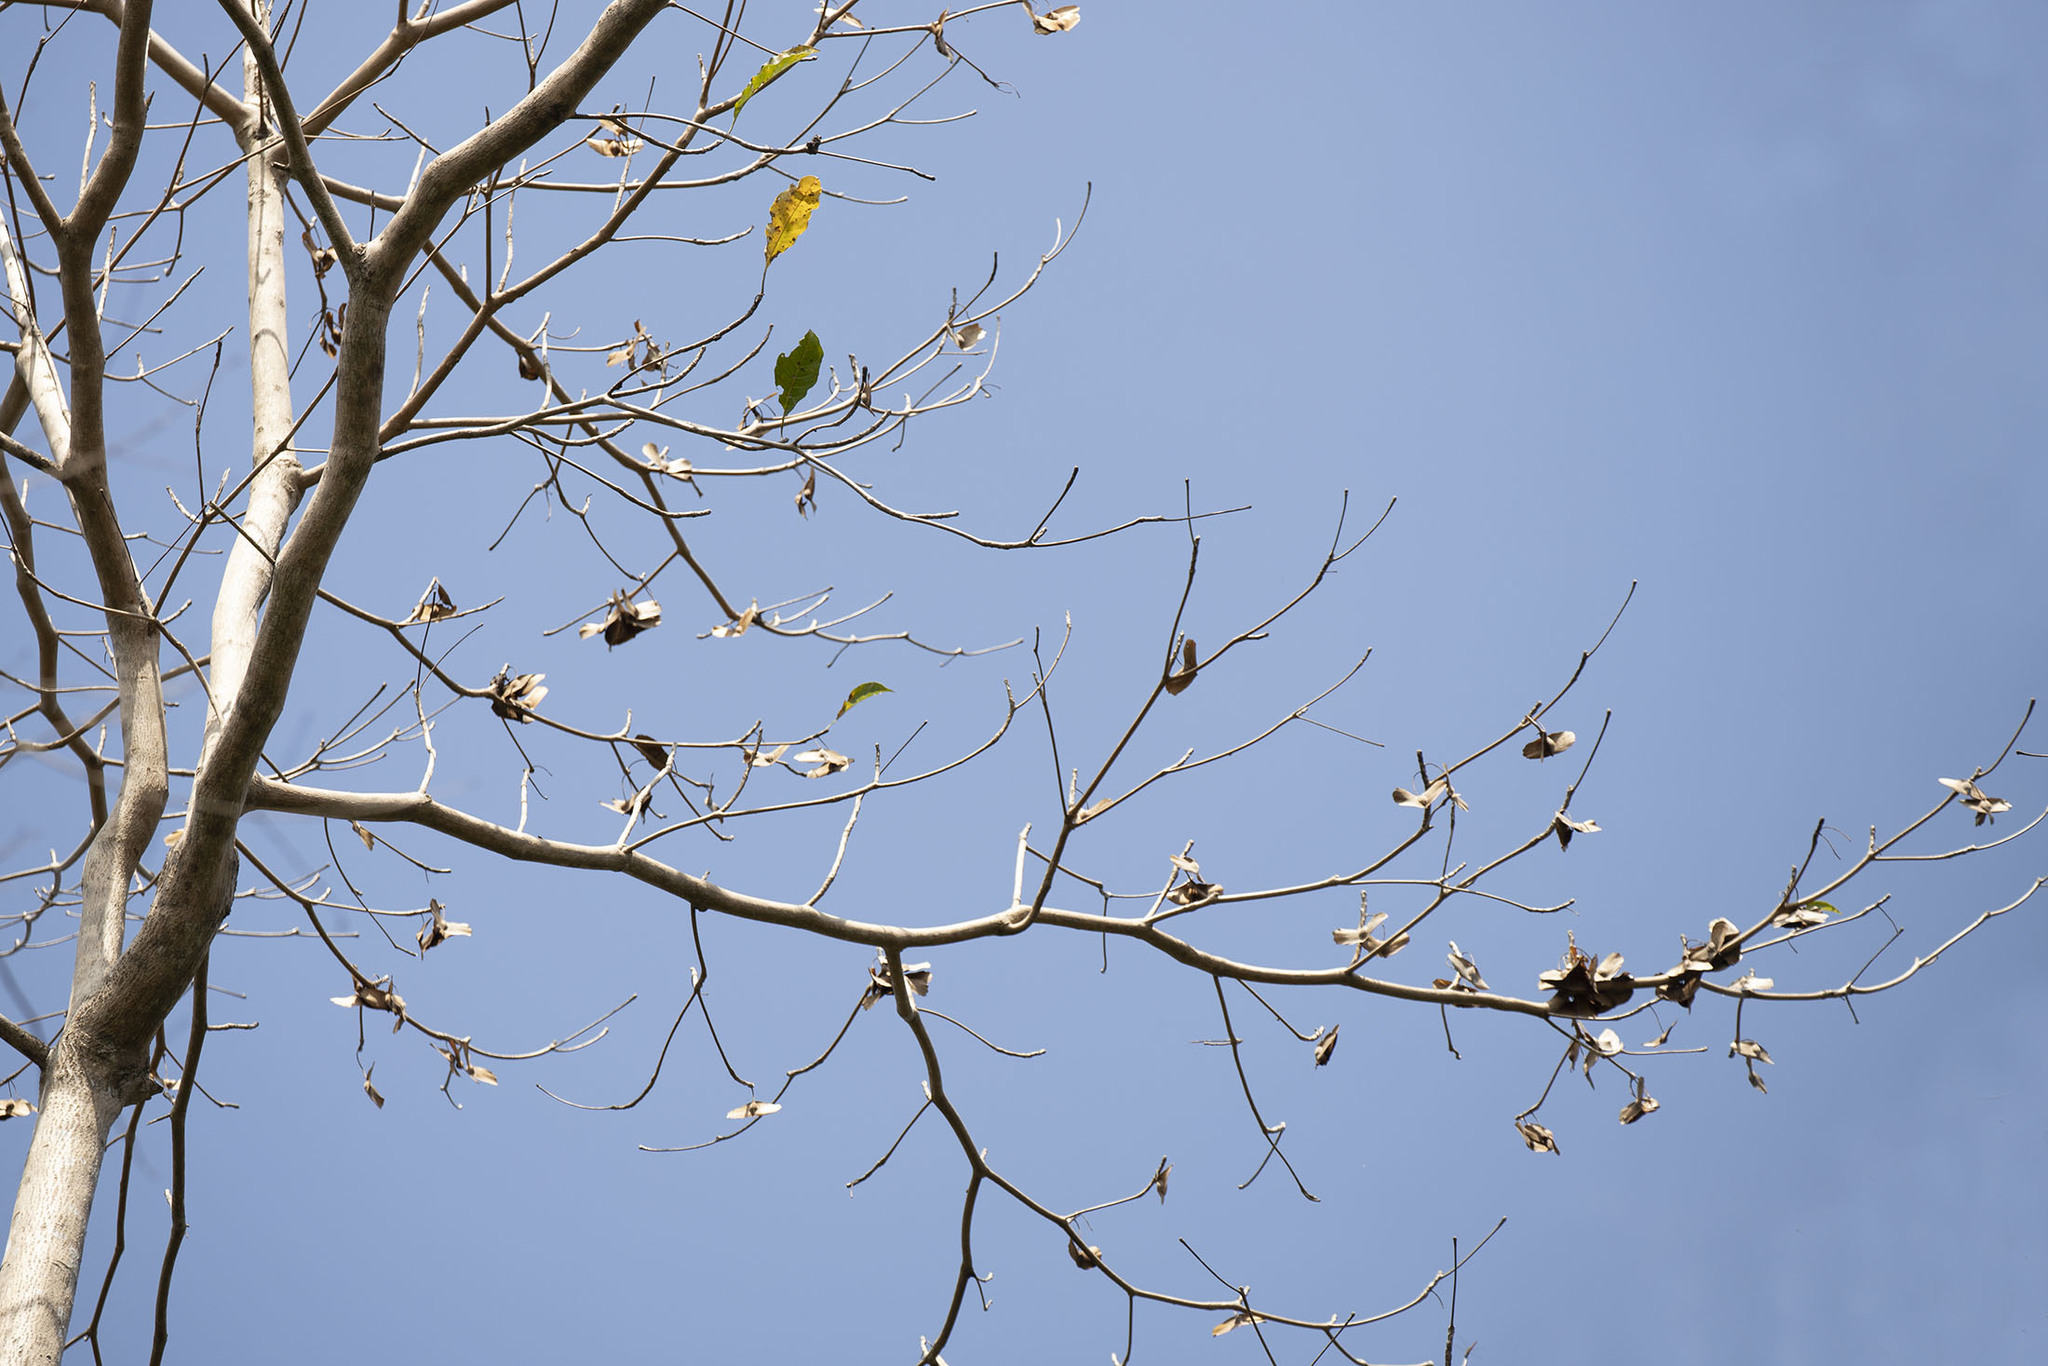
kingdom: Plantae
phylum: Tracheophyta
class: Magnoliopsida
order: Malvales
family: Malvaceae
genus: Pterocymbium
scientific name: Pterocymbium tinctorium
